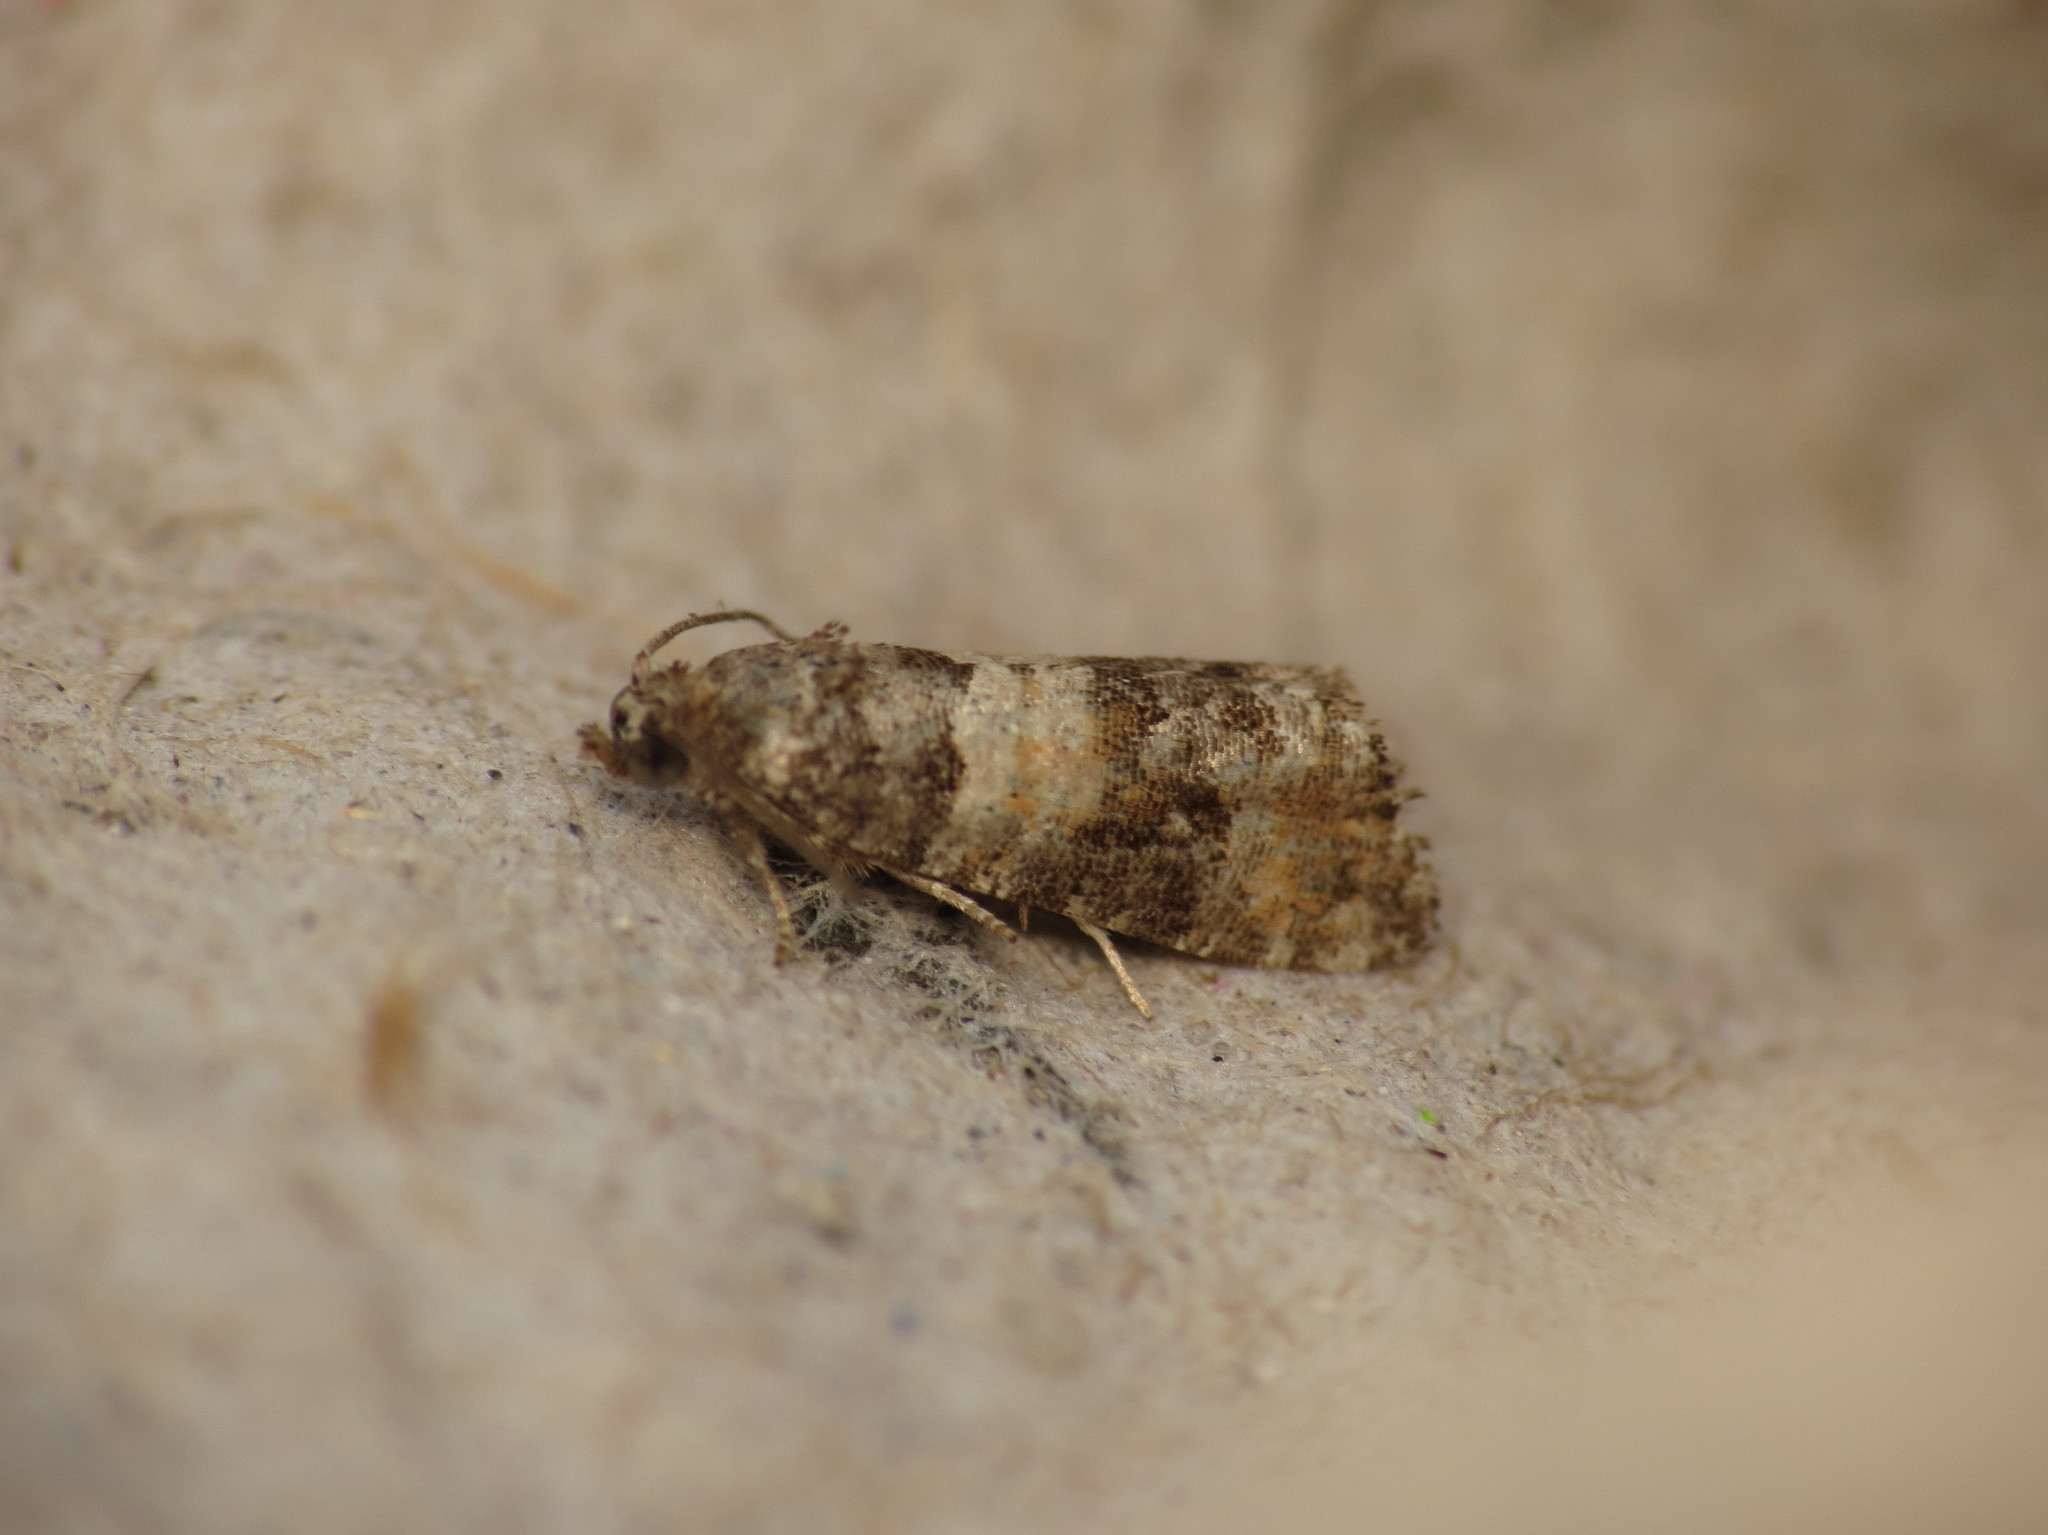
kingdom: Animalia
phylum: Arthropoda
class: Insecta
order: Lepidoptera
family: Tortricidae
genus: Piniphila
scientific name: Piniphila bifasciana
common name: Pine marble
